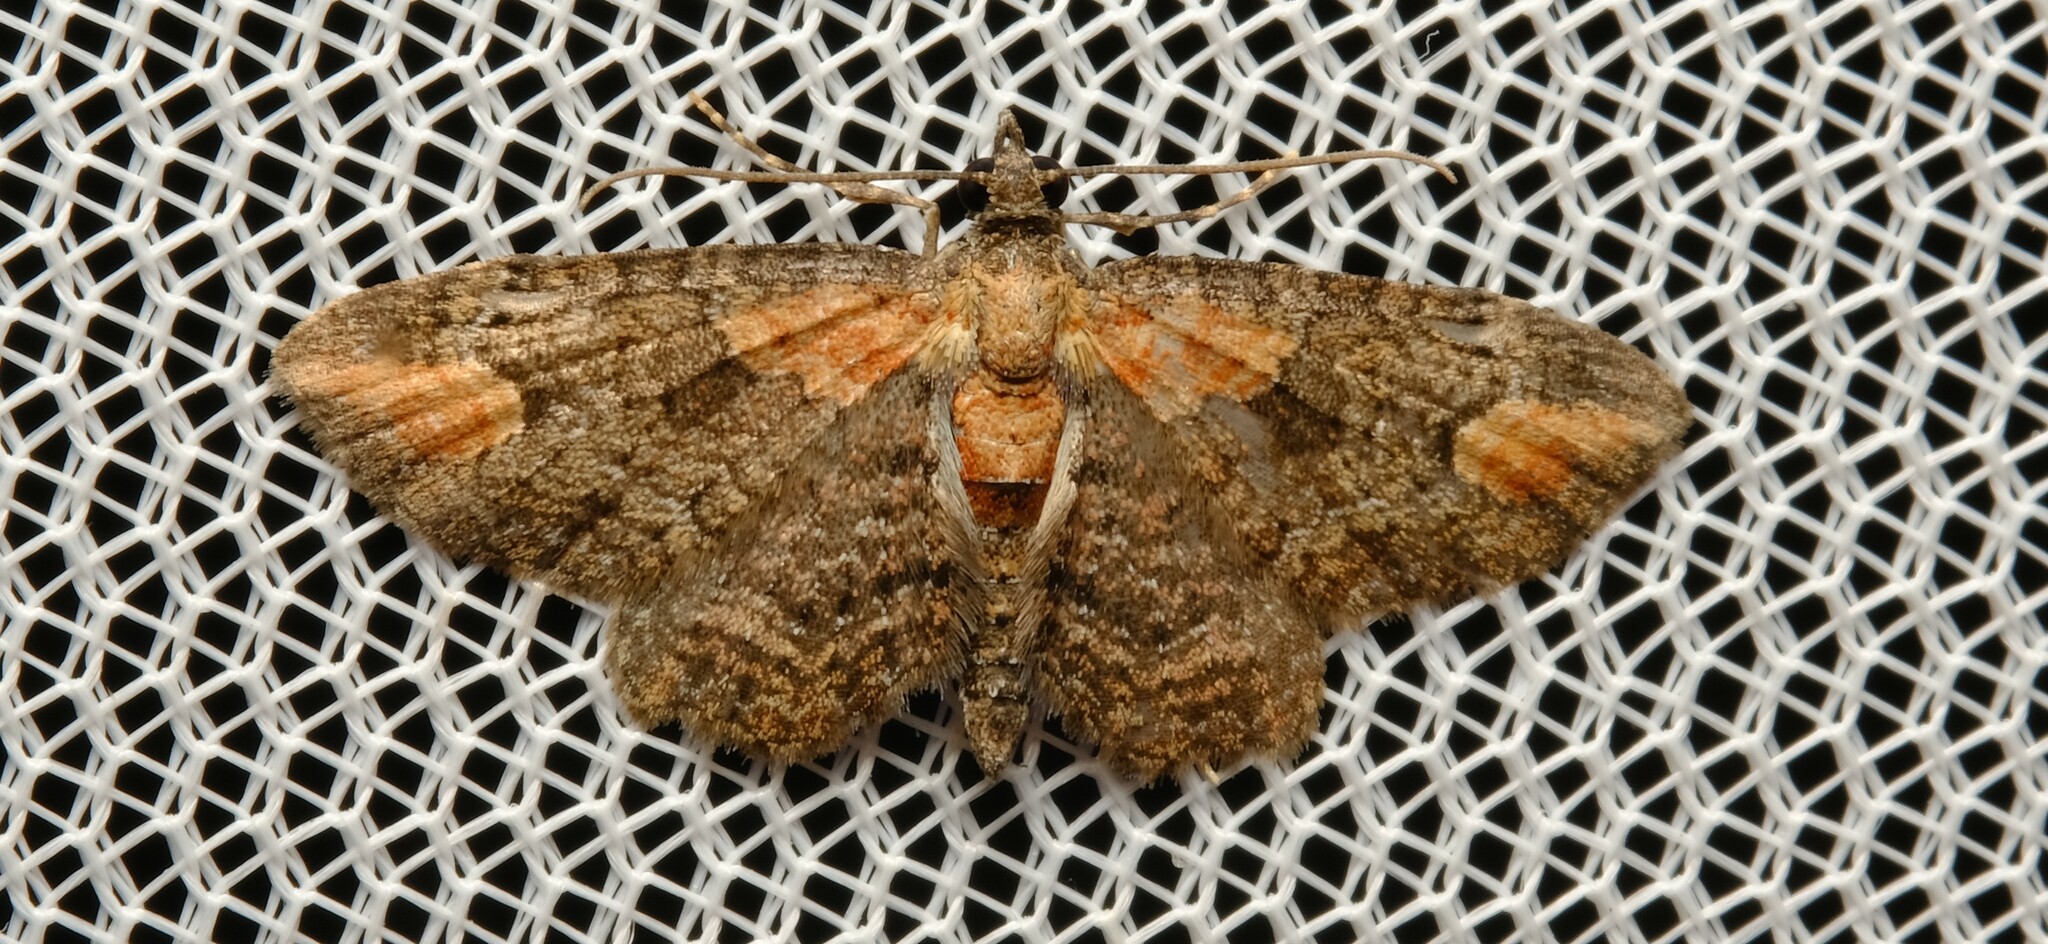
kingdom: Animalia
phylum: Arthropoda
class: Insecta
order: Lepidoptera
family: Geometridae
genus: Pasiphilodes
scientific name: Pasiphilodes testulata
